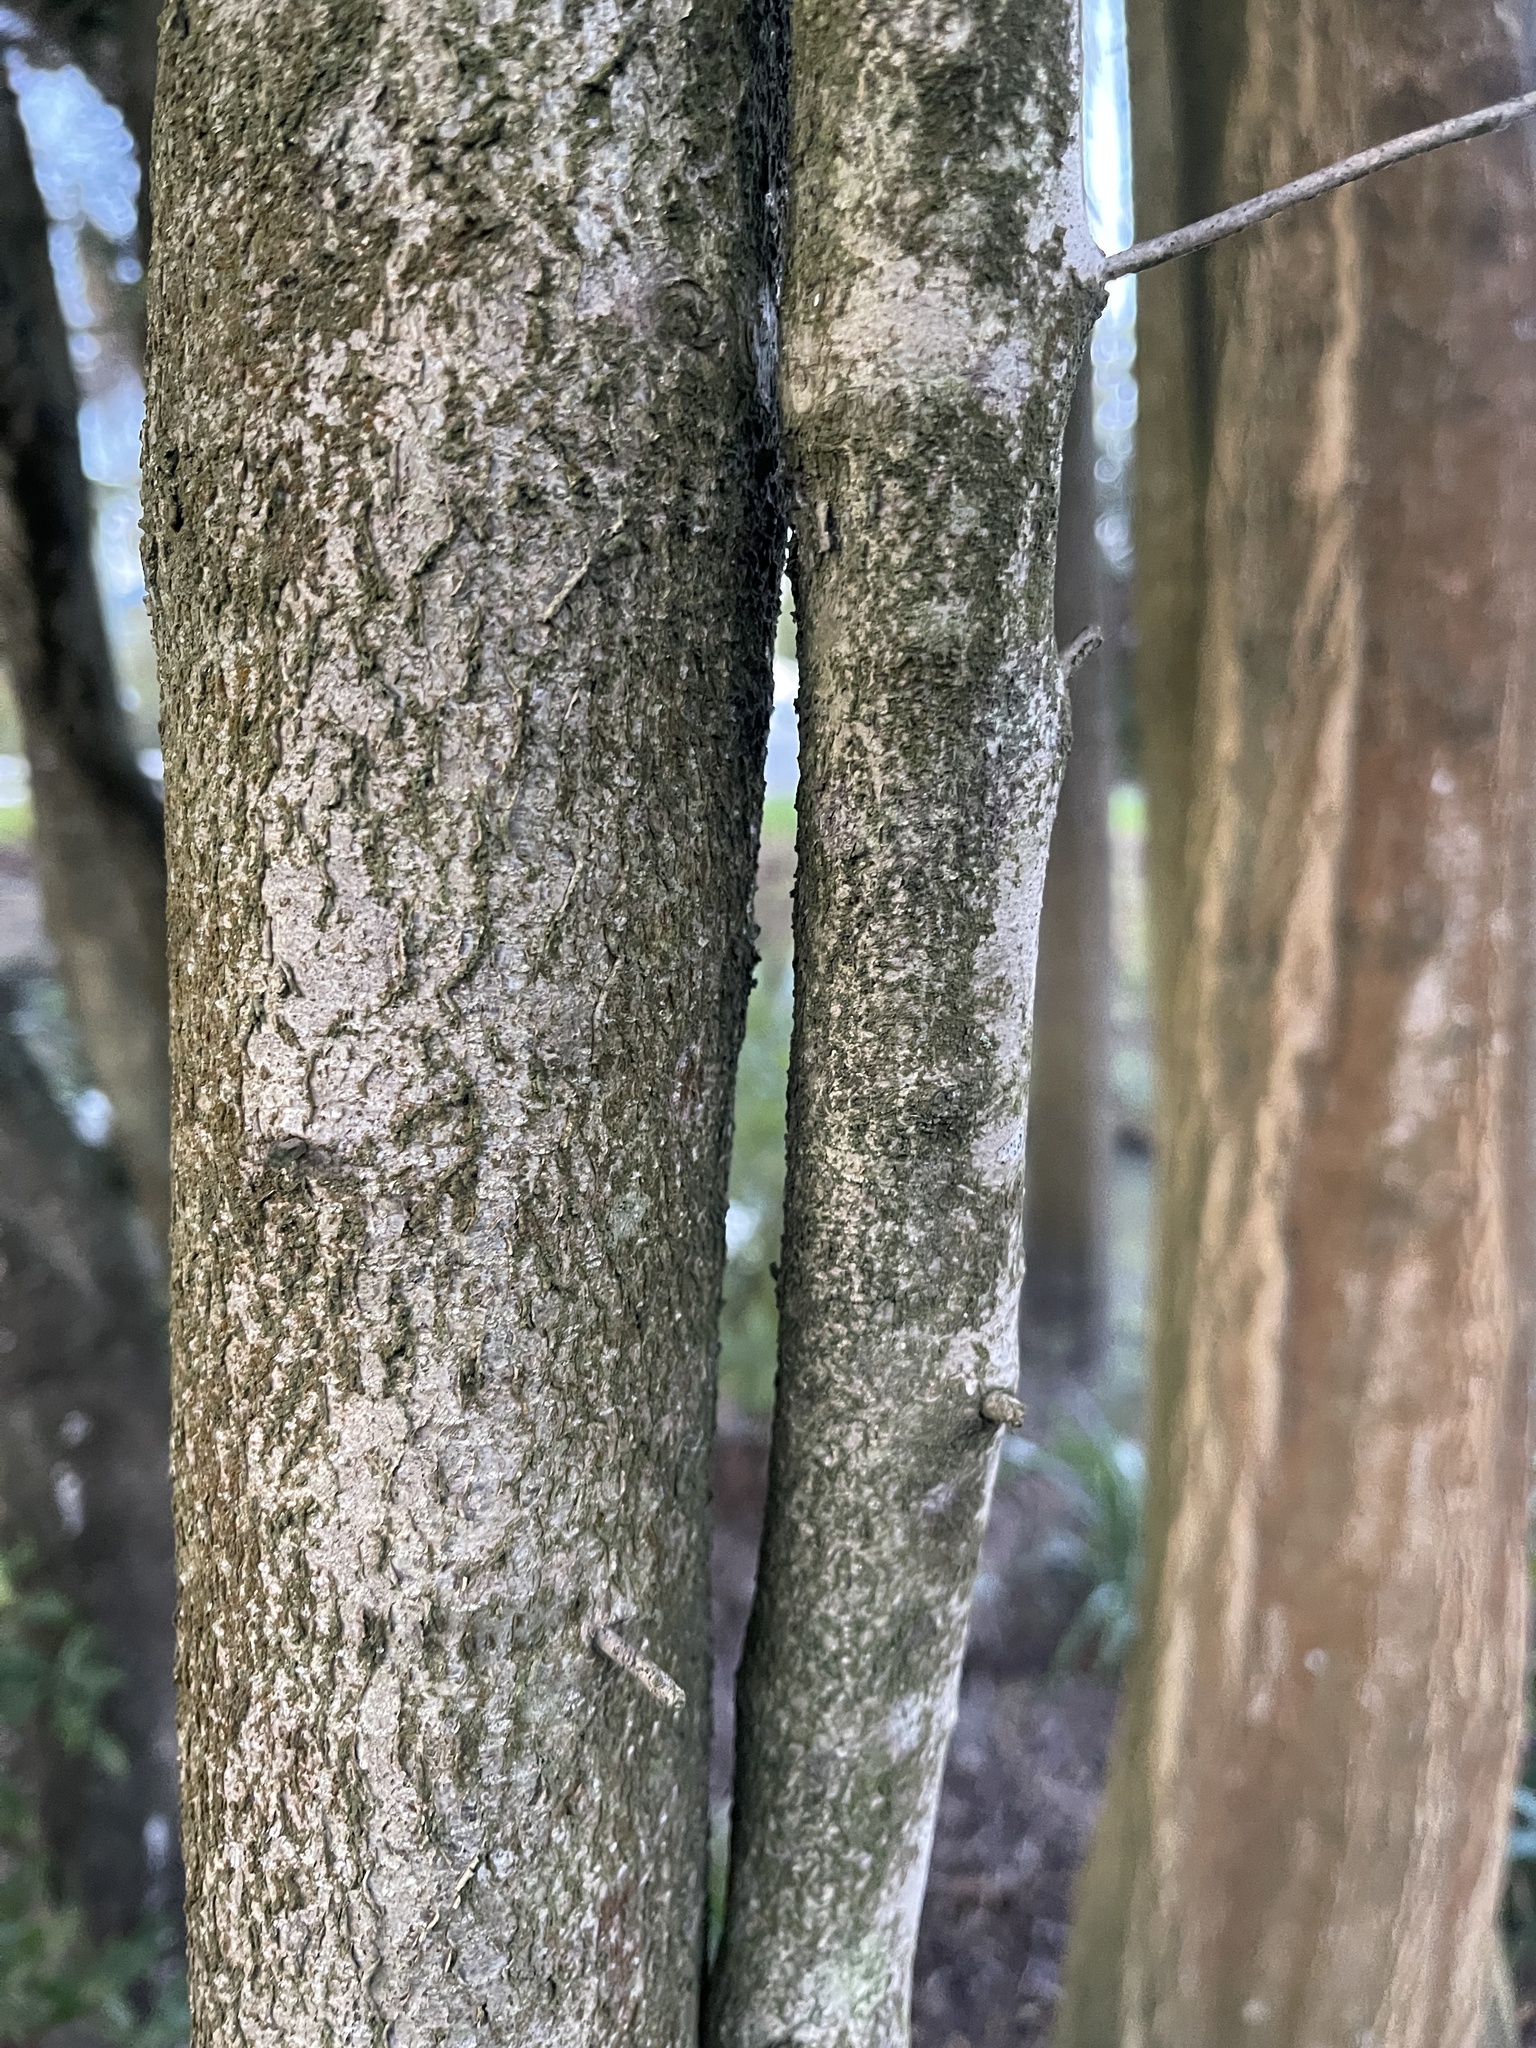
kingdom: Plantae
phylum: Tracheophyta
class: Magnoliopsida
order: Oxalidales
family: Elaeocarpaceae
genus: Elaeocarpus
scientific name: Elaeocarpus hookerianus
